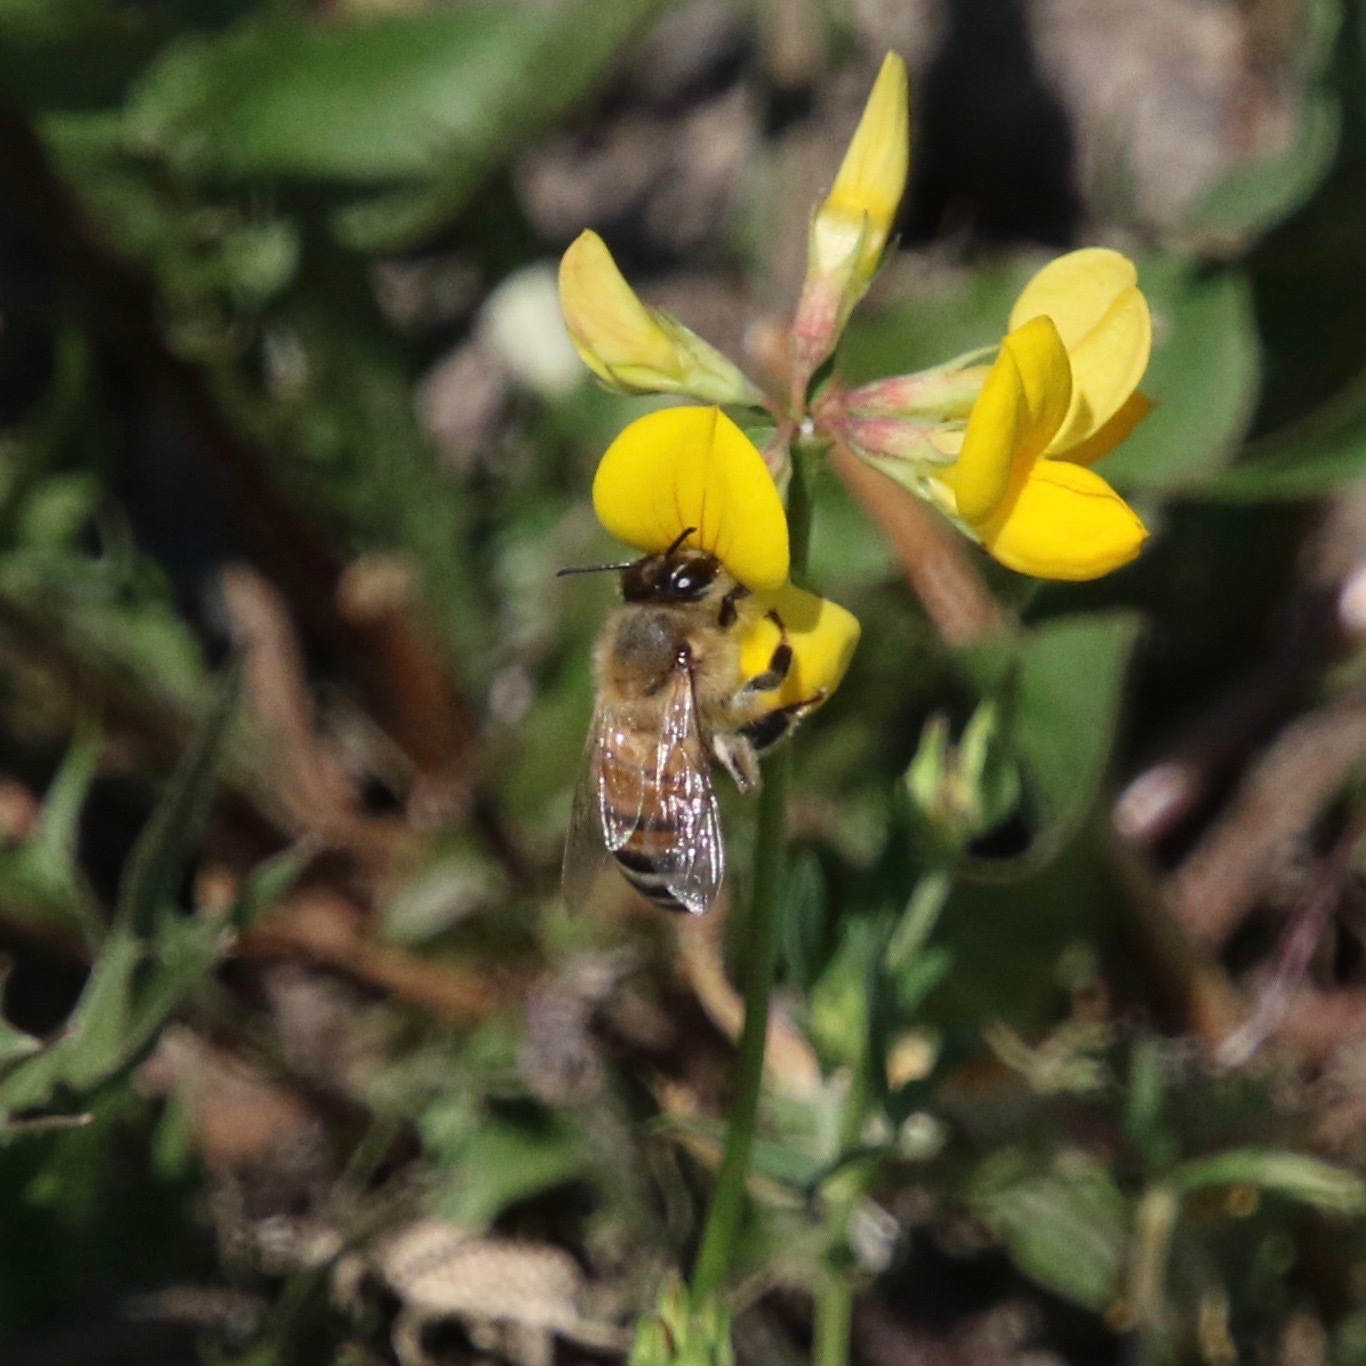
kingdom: Animalia
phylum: Arthropoda
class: Insecta
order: Hymenoptera
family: Apidae
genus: Apis
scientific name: Apis mellifera
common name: Honey bee
